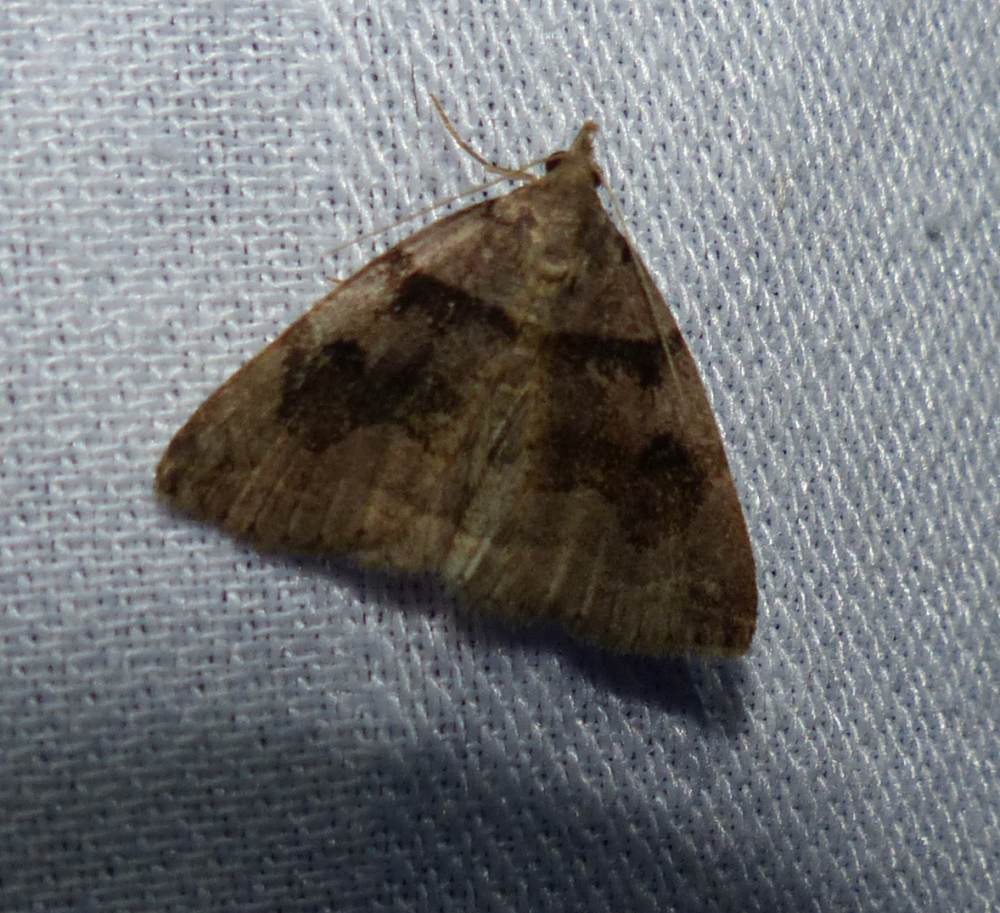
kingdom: Animalia
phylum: Arthropoda
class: Insecta
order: Lepidoptera
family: Erebidae
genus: Zanclognatha
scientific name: Zanclognatha laevigata
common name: Variable fan-foot
